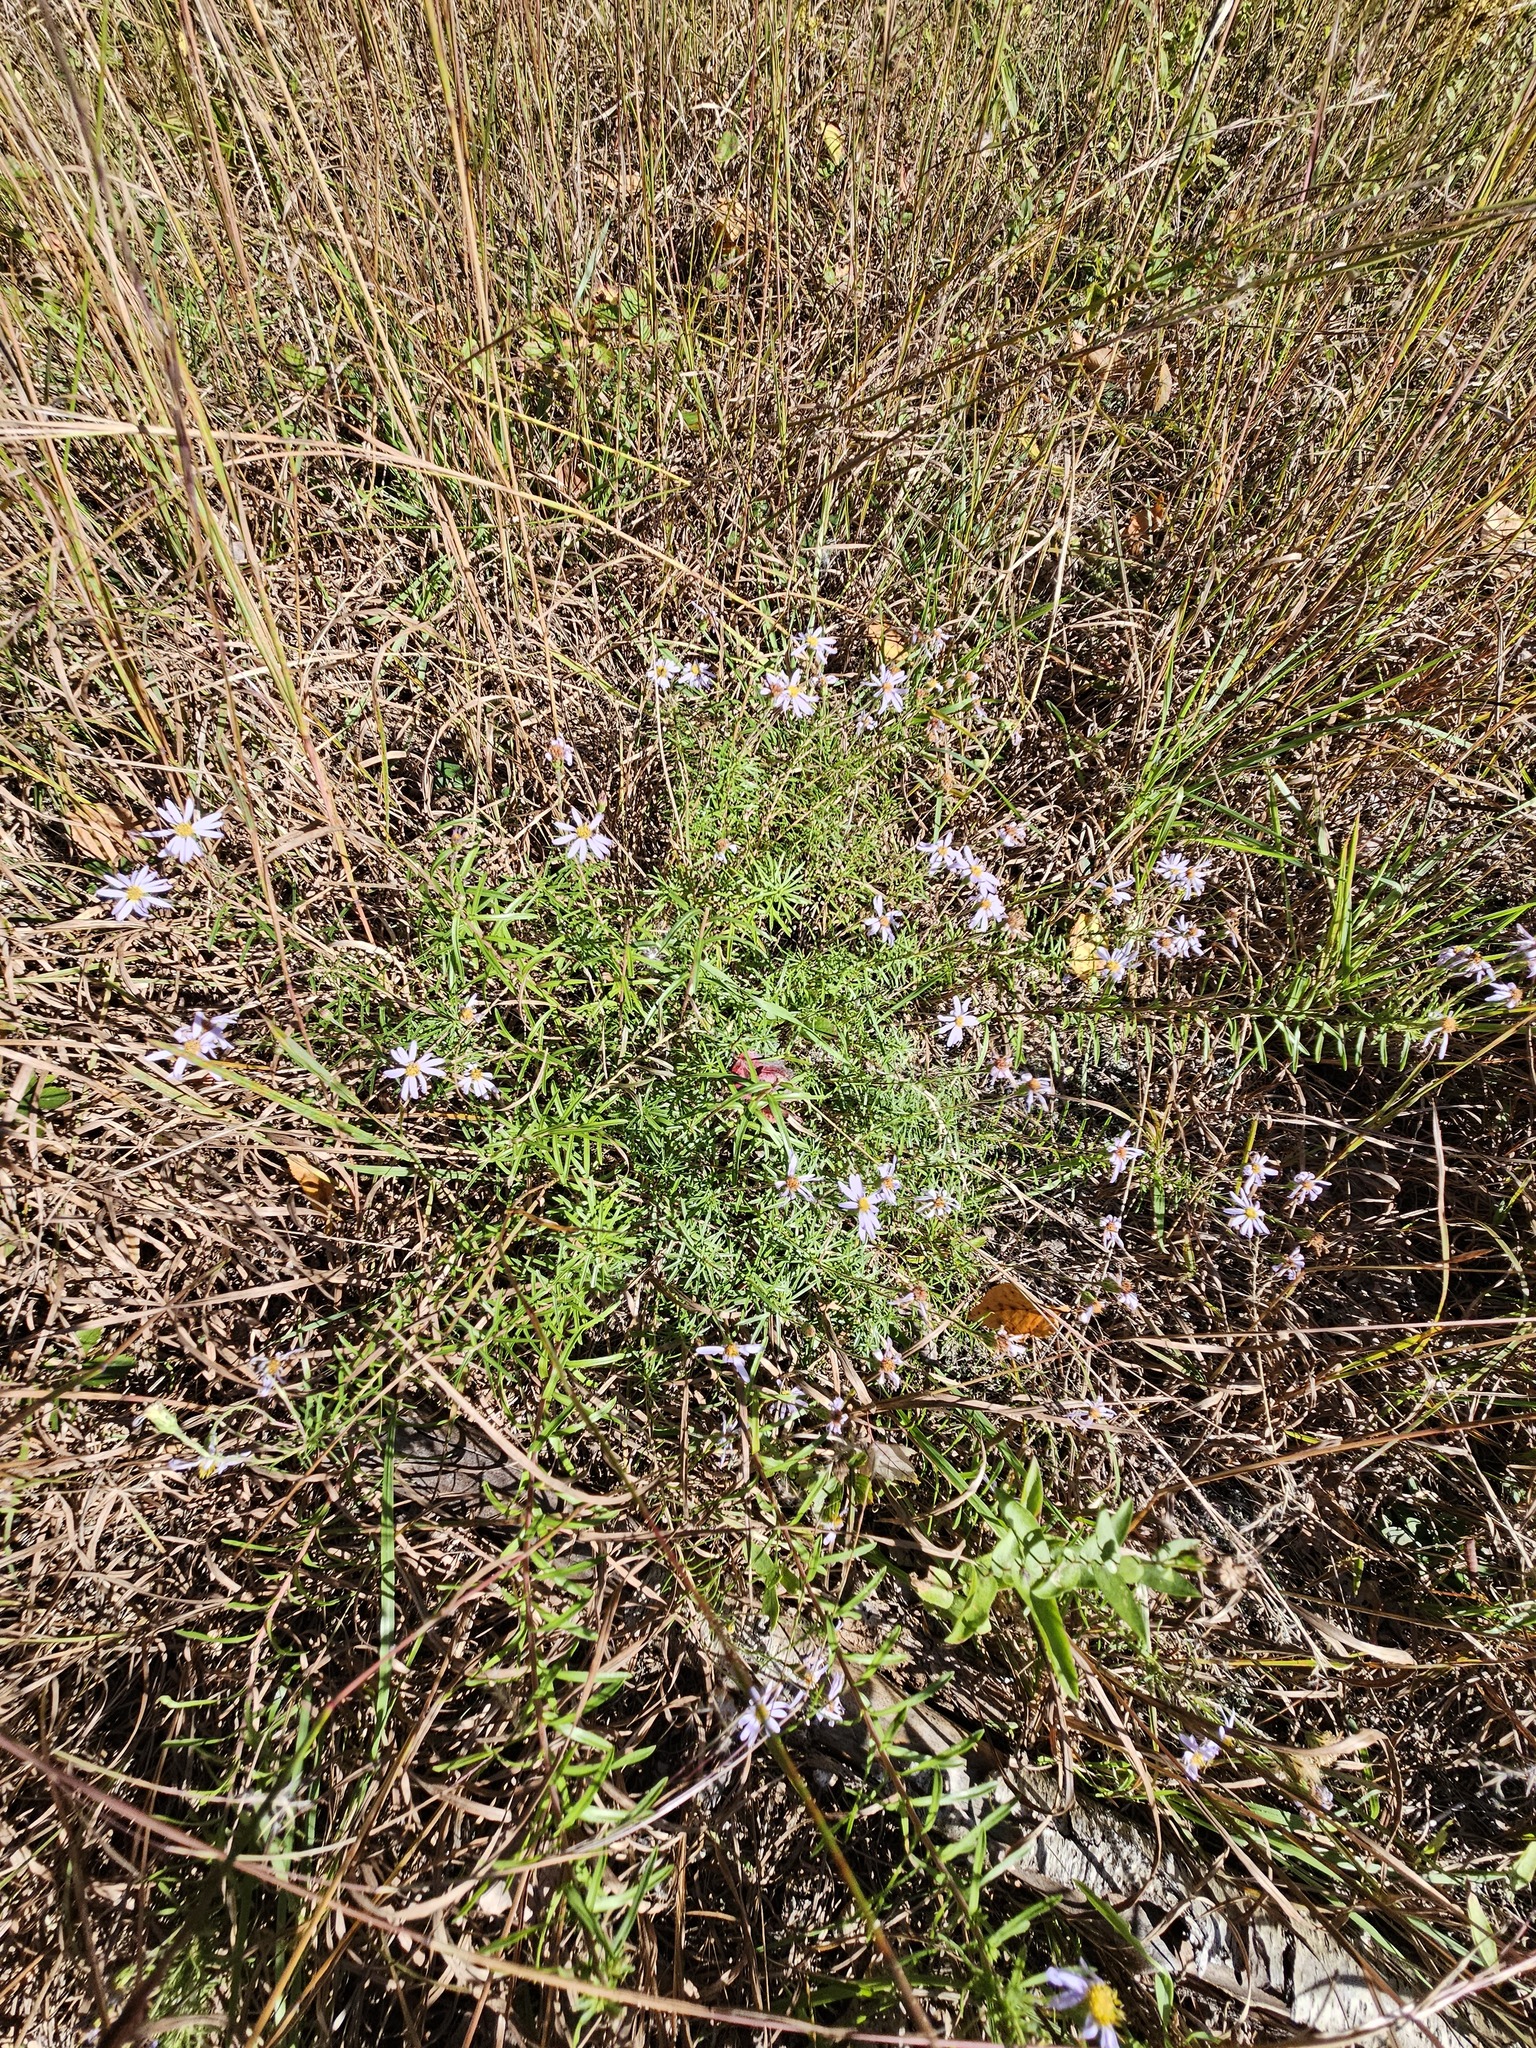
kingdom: Plantae
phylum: Tracheophyta
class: Magnoliopsida
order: Asterales
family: Asteraceae
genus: Ionactis
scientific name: Ionactis linariifolia
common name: Flax-leaf aster
